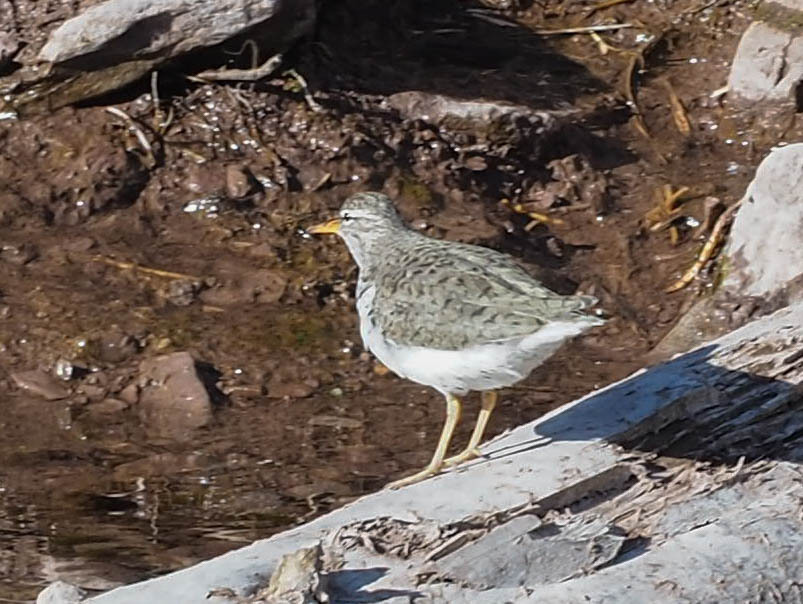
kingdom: Animalia
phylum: Chordata
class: Aves
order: Charadriiformes
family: Scolopacidae
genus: Actitis
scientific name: Actitis macularius
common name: Spotted sandpiper
